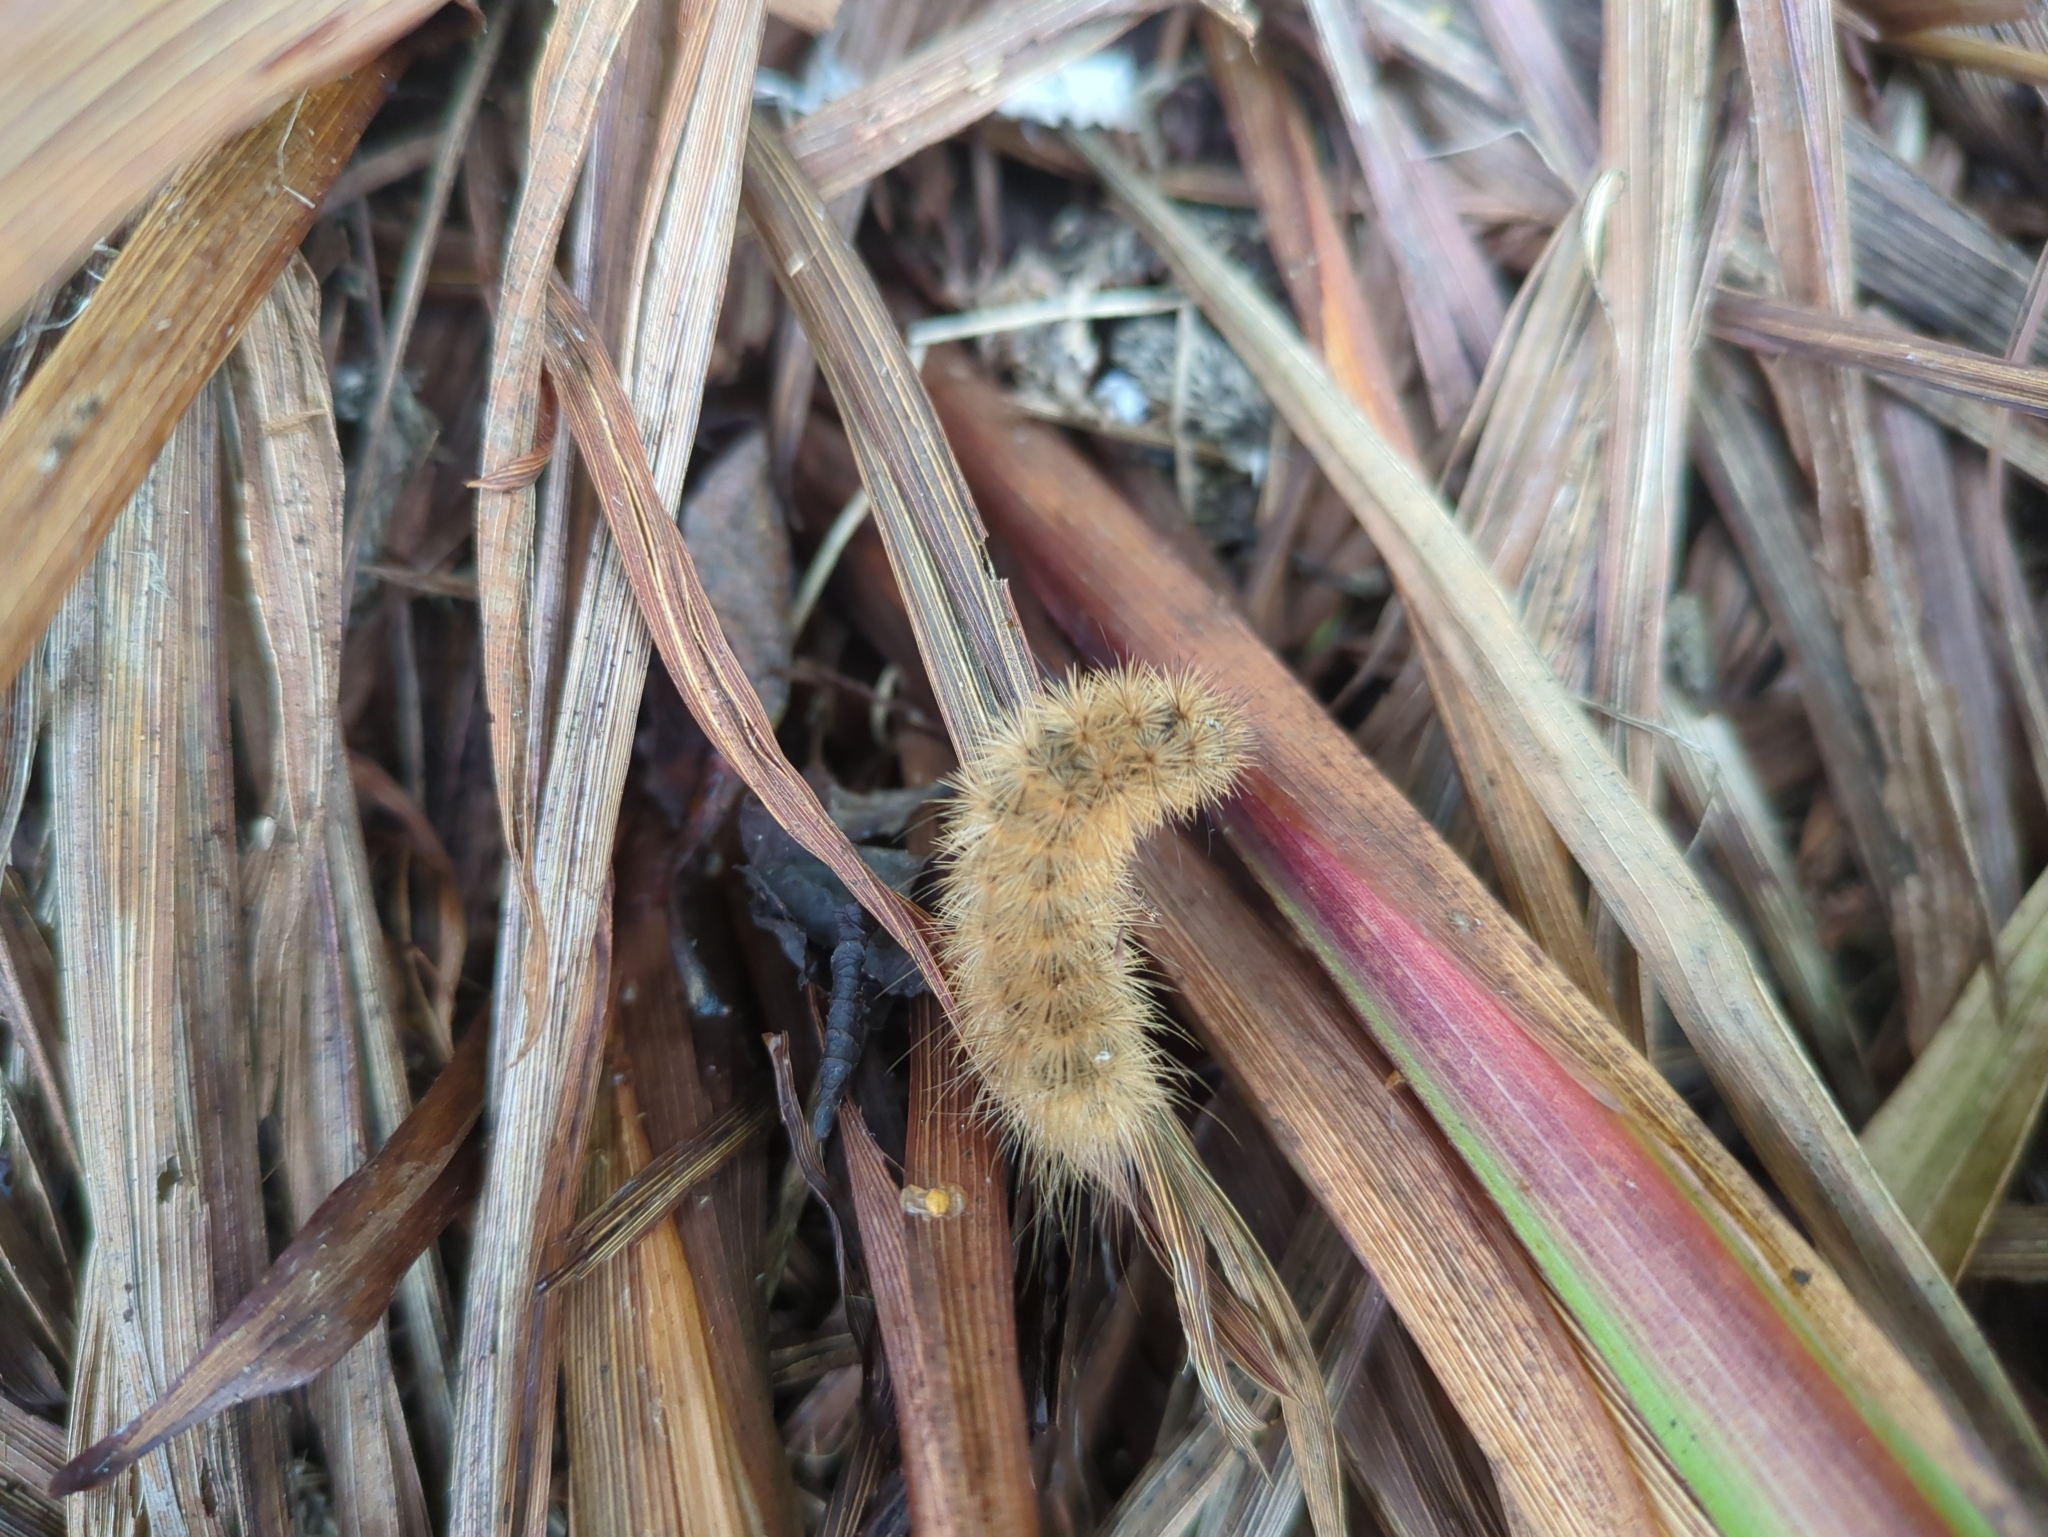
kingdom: Animalia
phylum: Arthropoda
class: Insecta
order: Lepidoptera
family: Erebidae
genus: Phragmatobia
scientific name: Phragmatobia fuliginosa
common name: Ruby tiger
